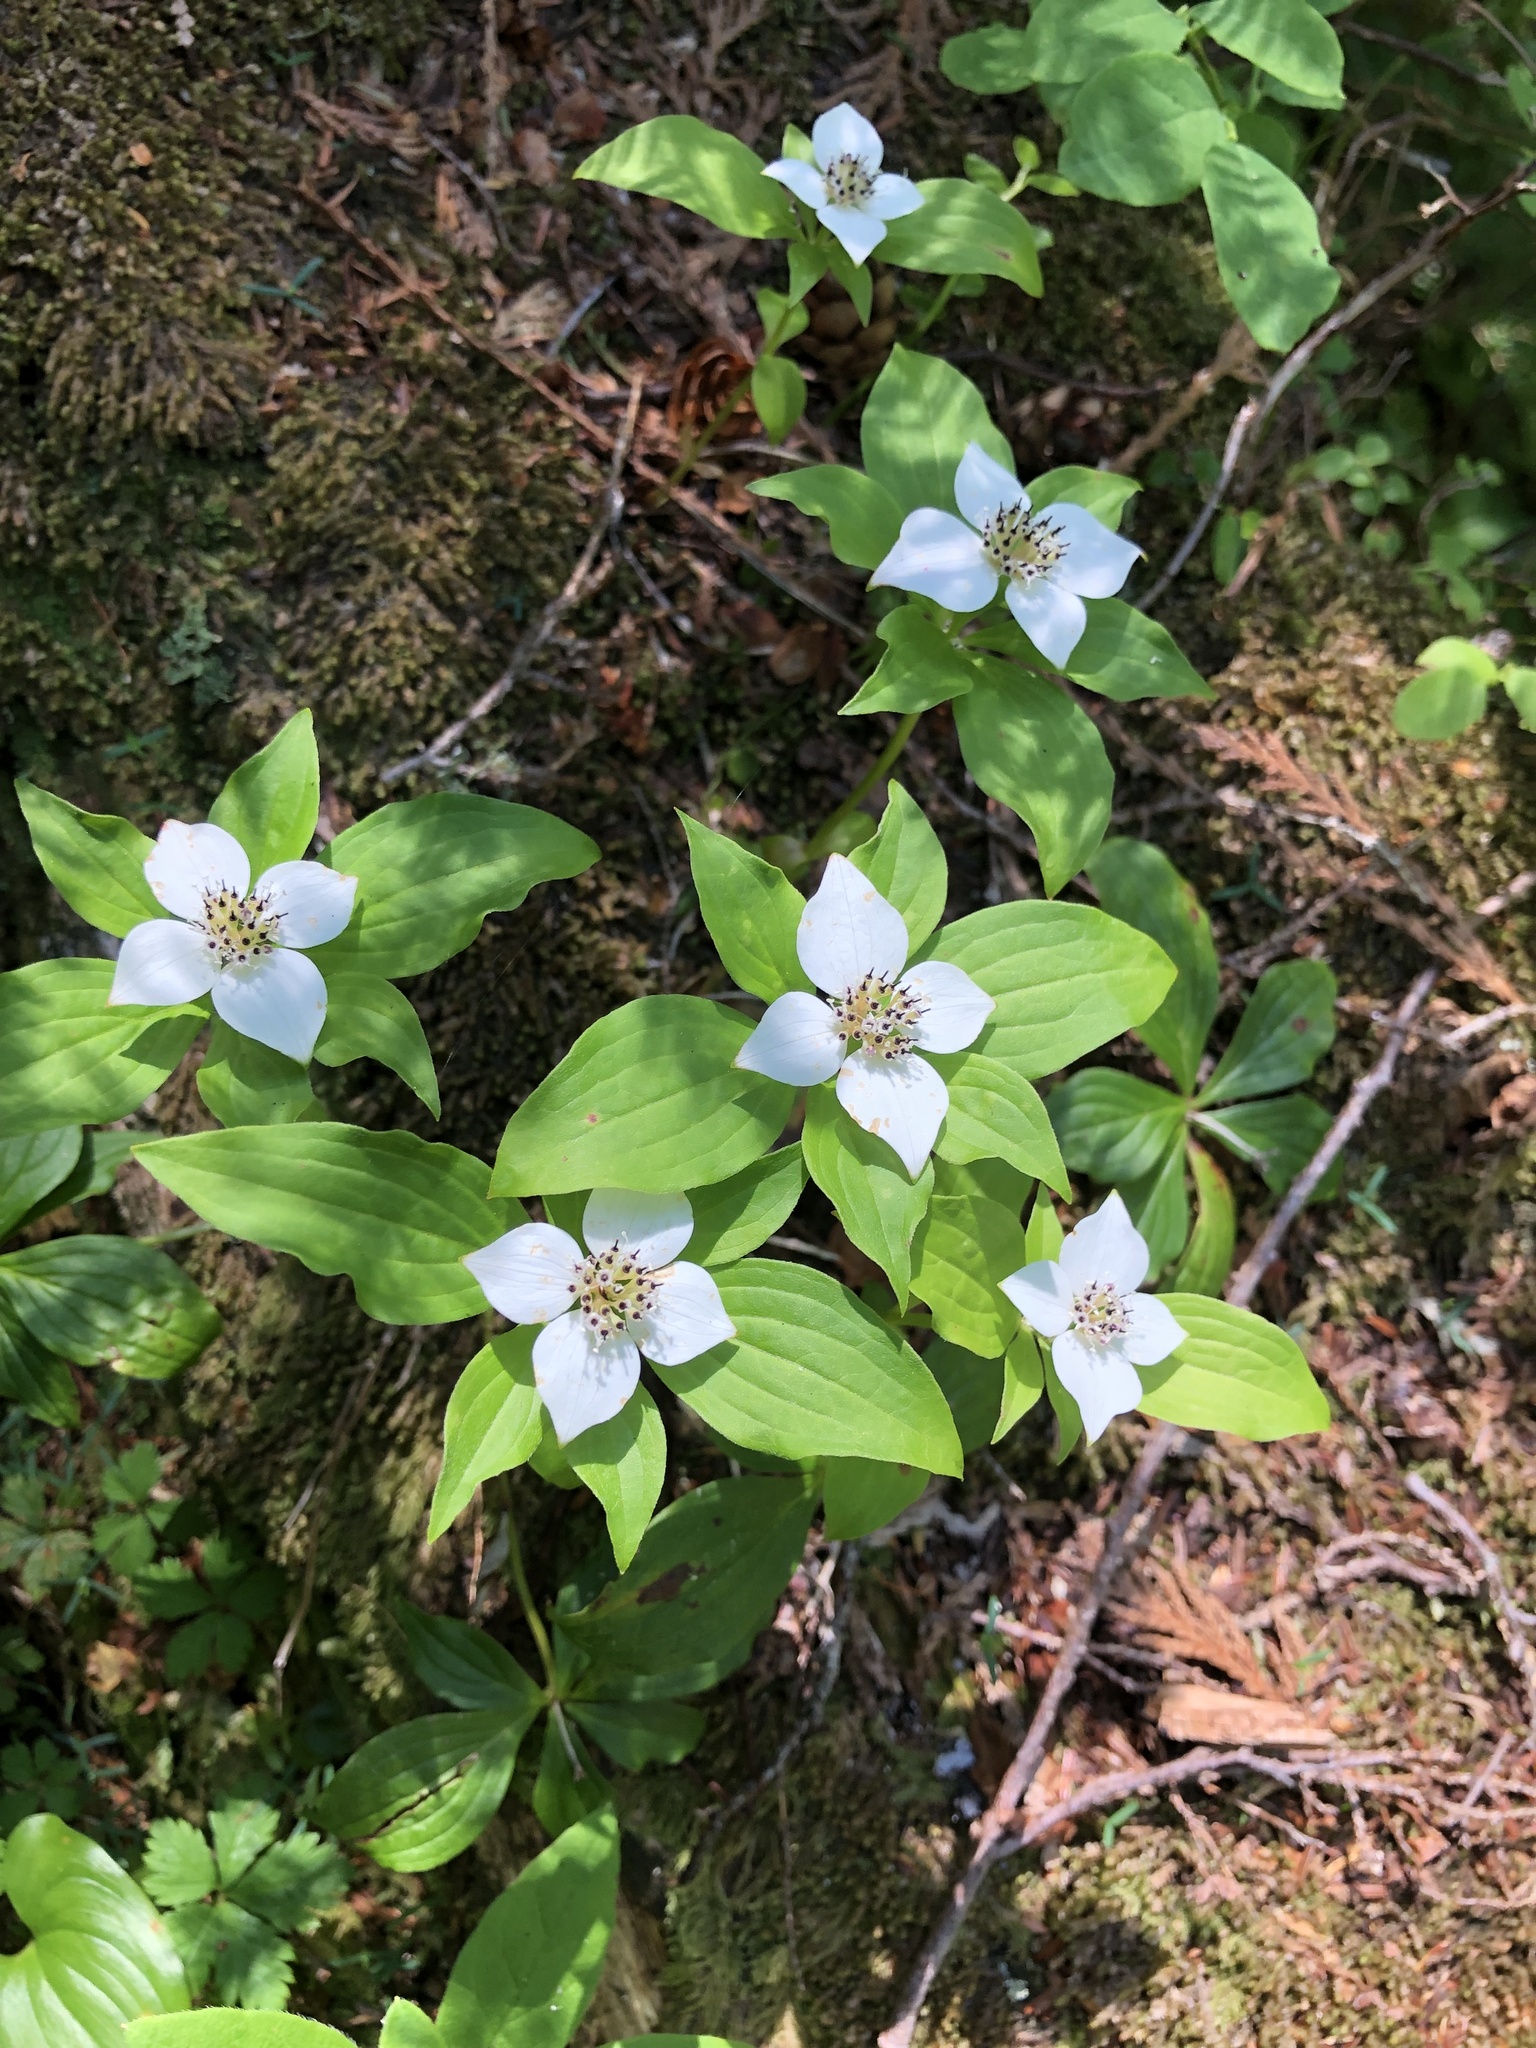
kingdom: Plantae
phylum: Tracheophyta
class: Magnoliopsida
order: Cornales
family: Cornaceae
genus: Cornus
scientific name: Cornus unalaschkensis
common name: Alaska bunchberry
